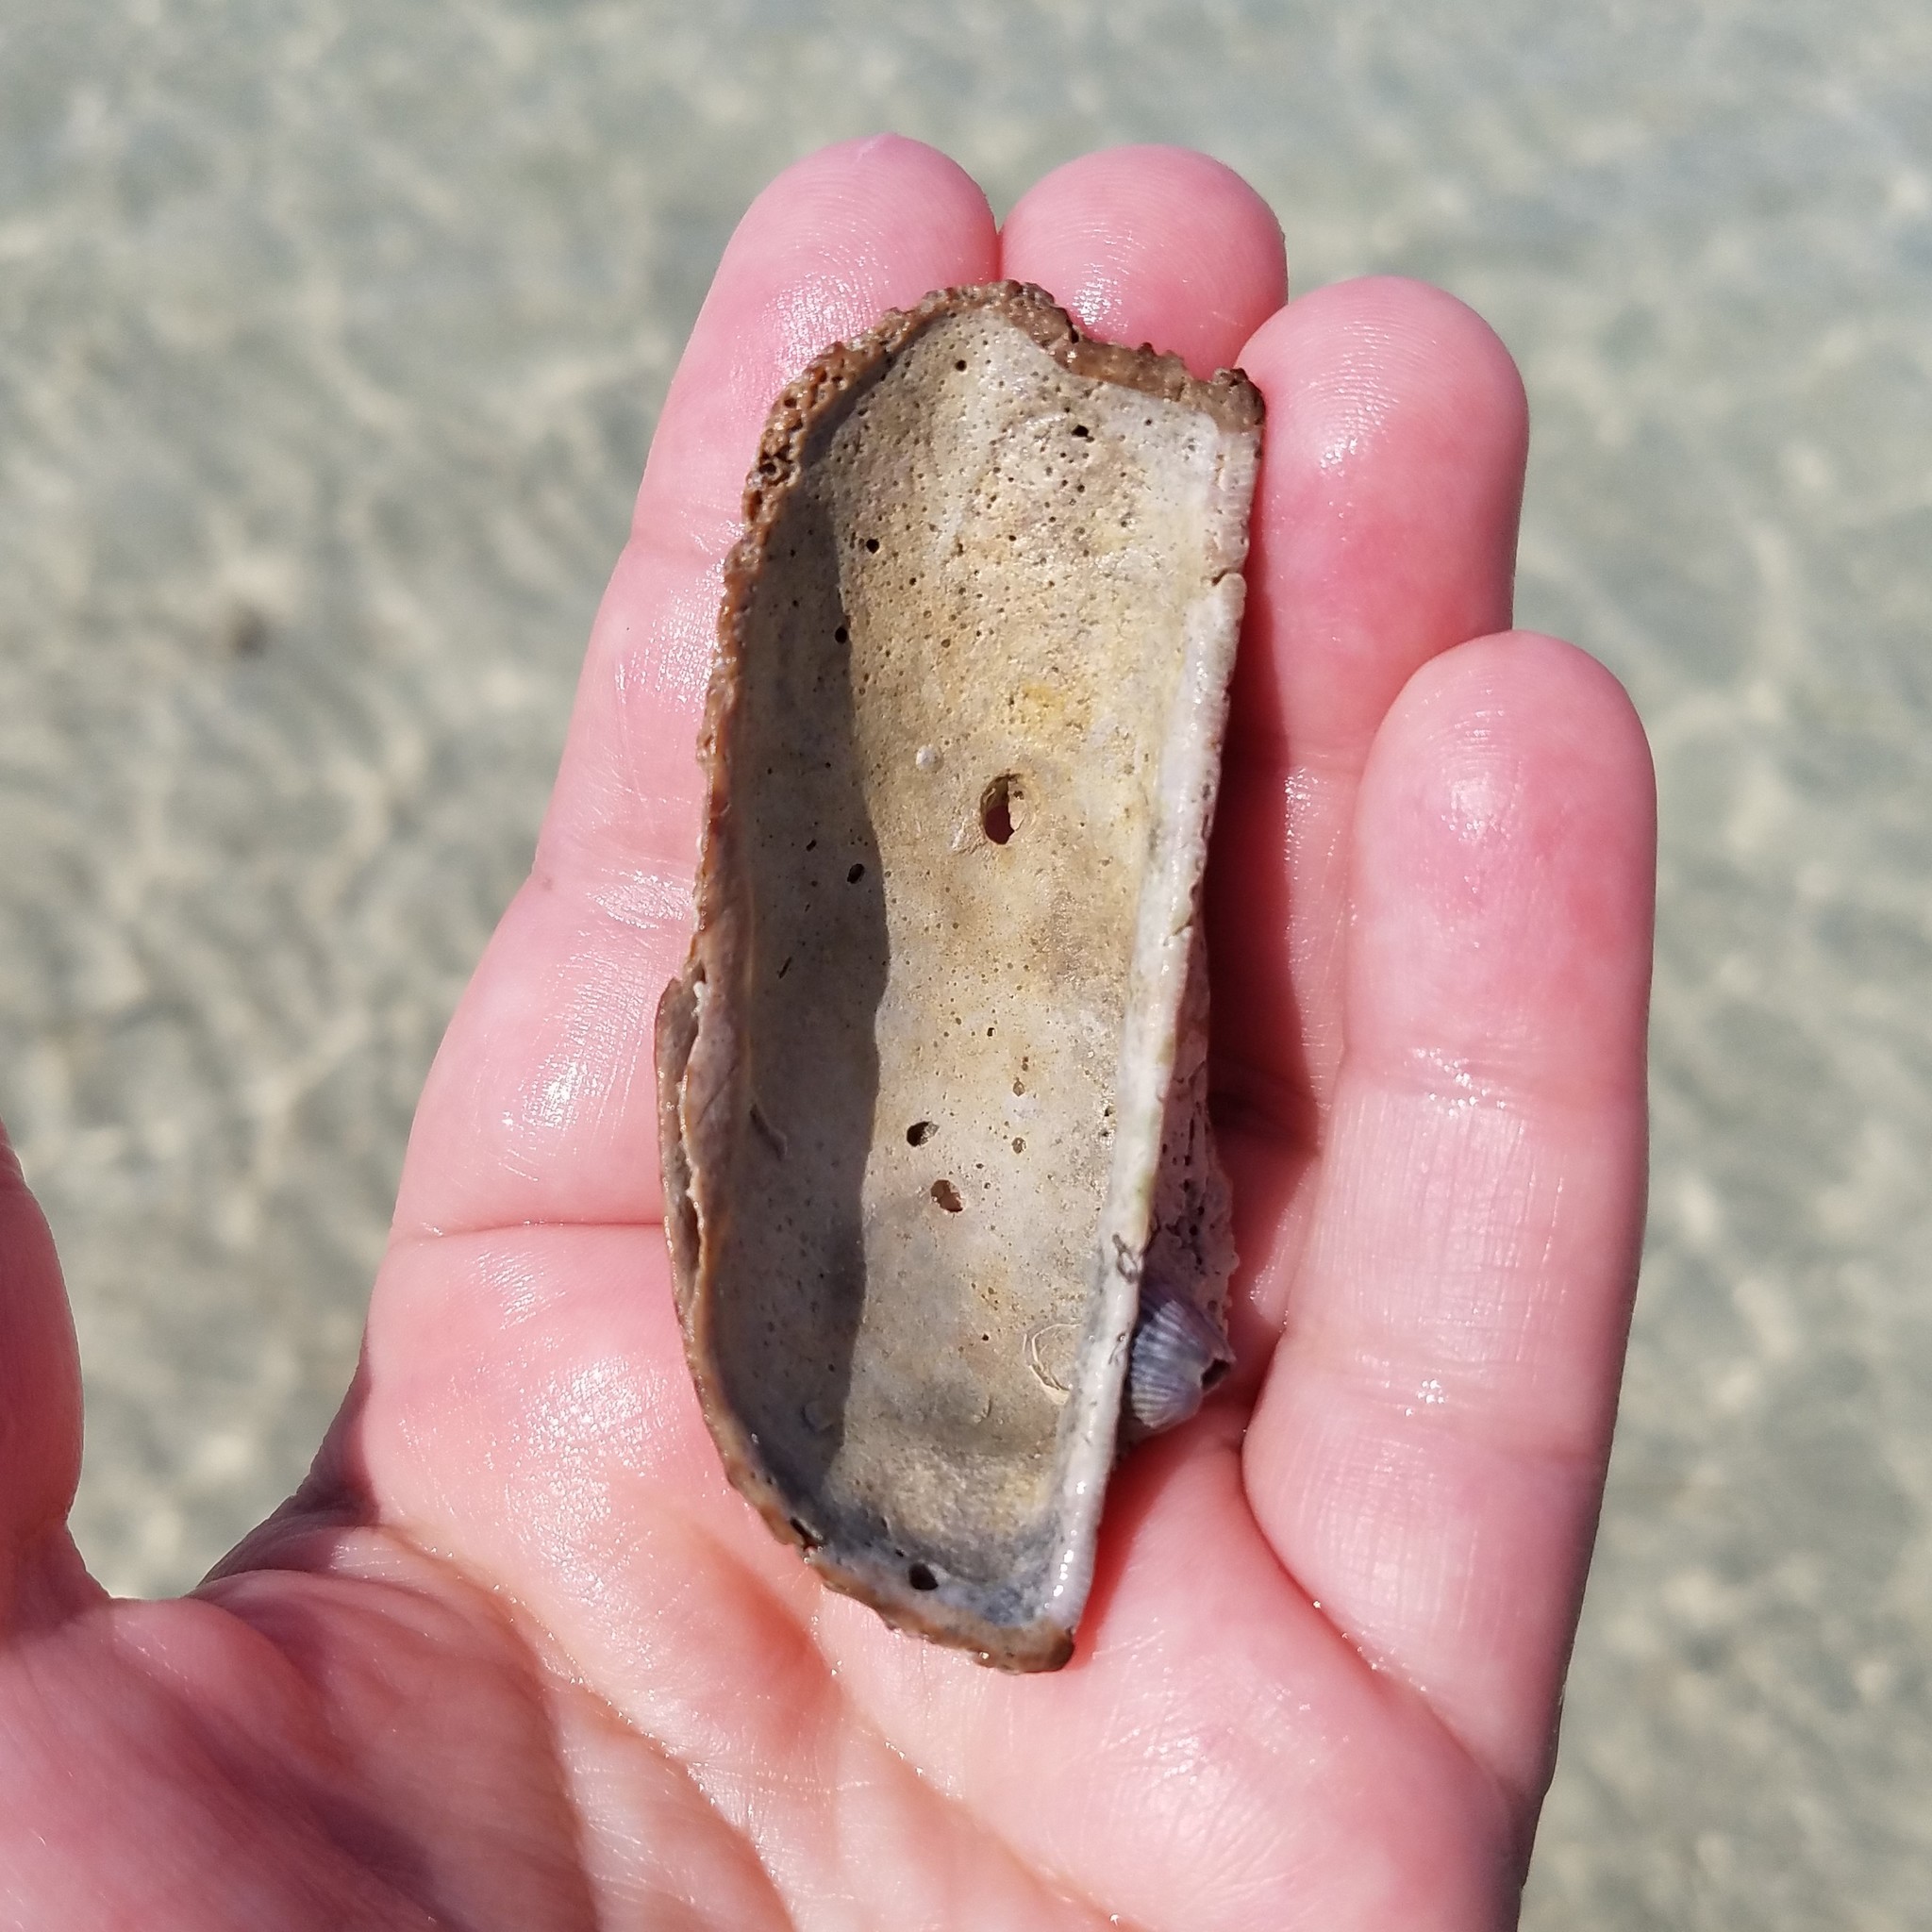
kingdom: Animalia
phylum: Mollusca
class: Bivalvia
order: Arcida
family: Arcidae
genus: Arca
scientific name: Arca zebra
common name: Atlantic turkey wing
